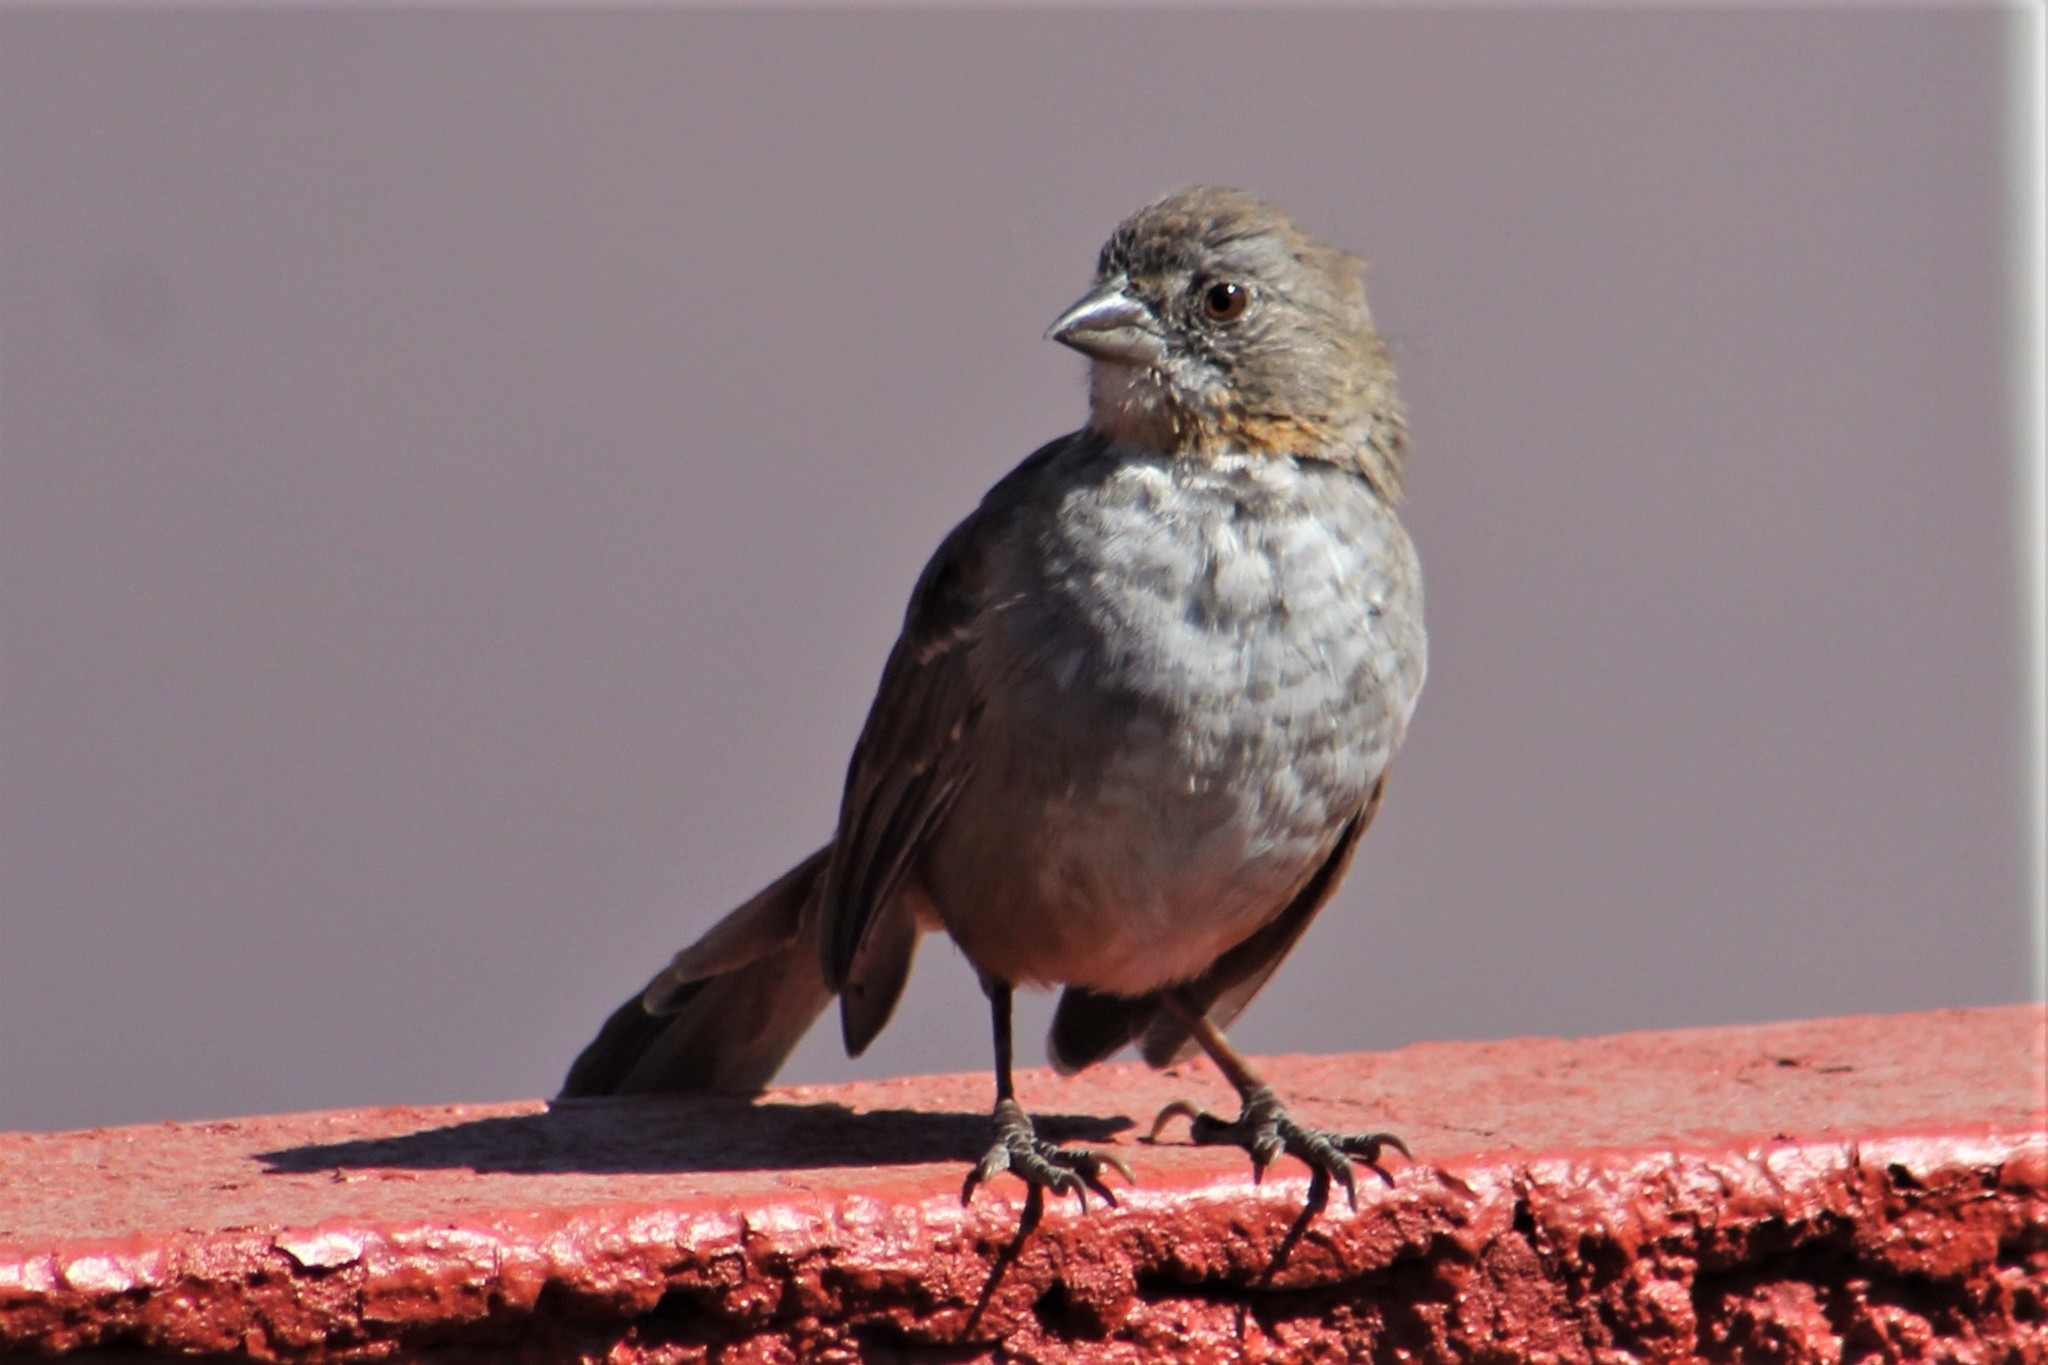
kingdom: Animalia
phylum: Chordata
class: Aves
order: Passeriformes
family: Passerellidae
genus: Melozone
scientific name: Melozone albicollis
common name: White-throated towhee
